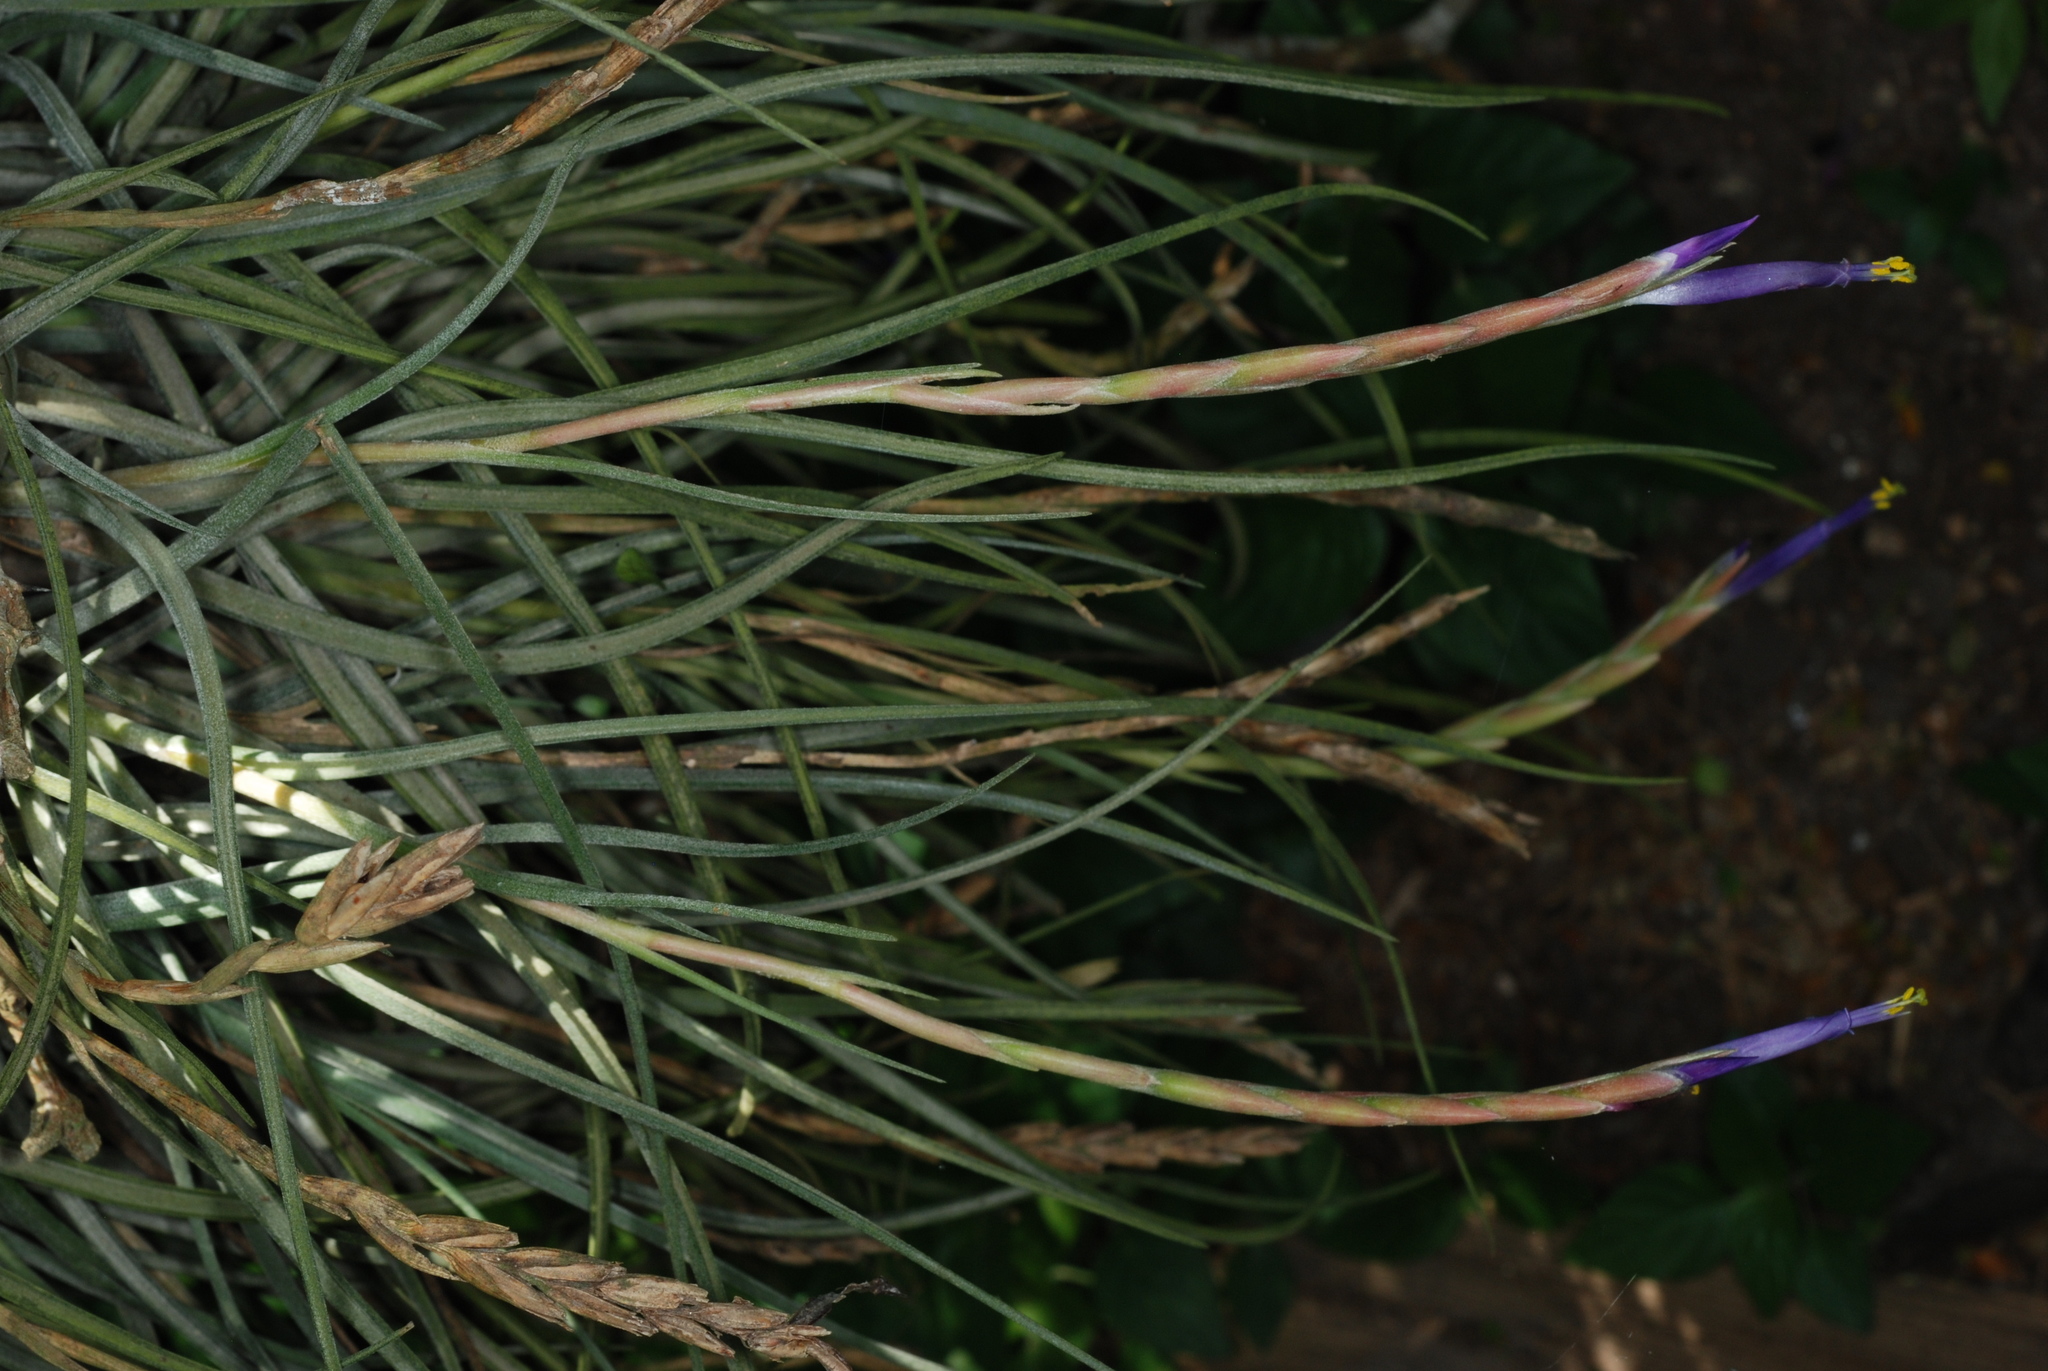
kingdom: Plantae
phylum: Tracheophyta
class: Liliopsida
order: Poales
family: Bromeliaceae
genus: Tillandsia
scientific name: Tillandsia baileyi
